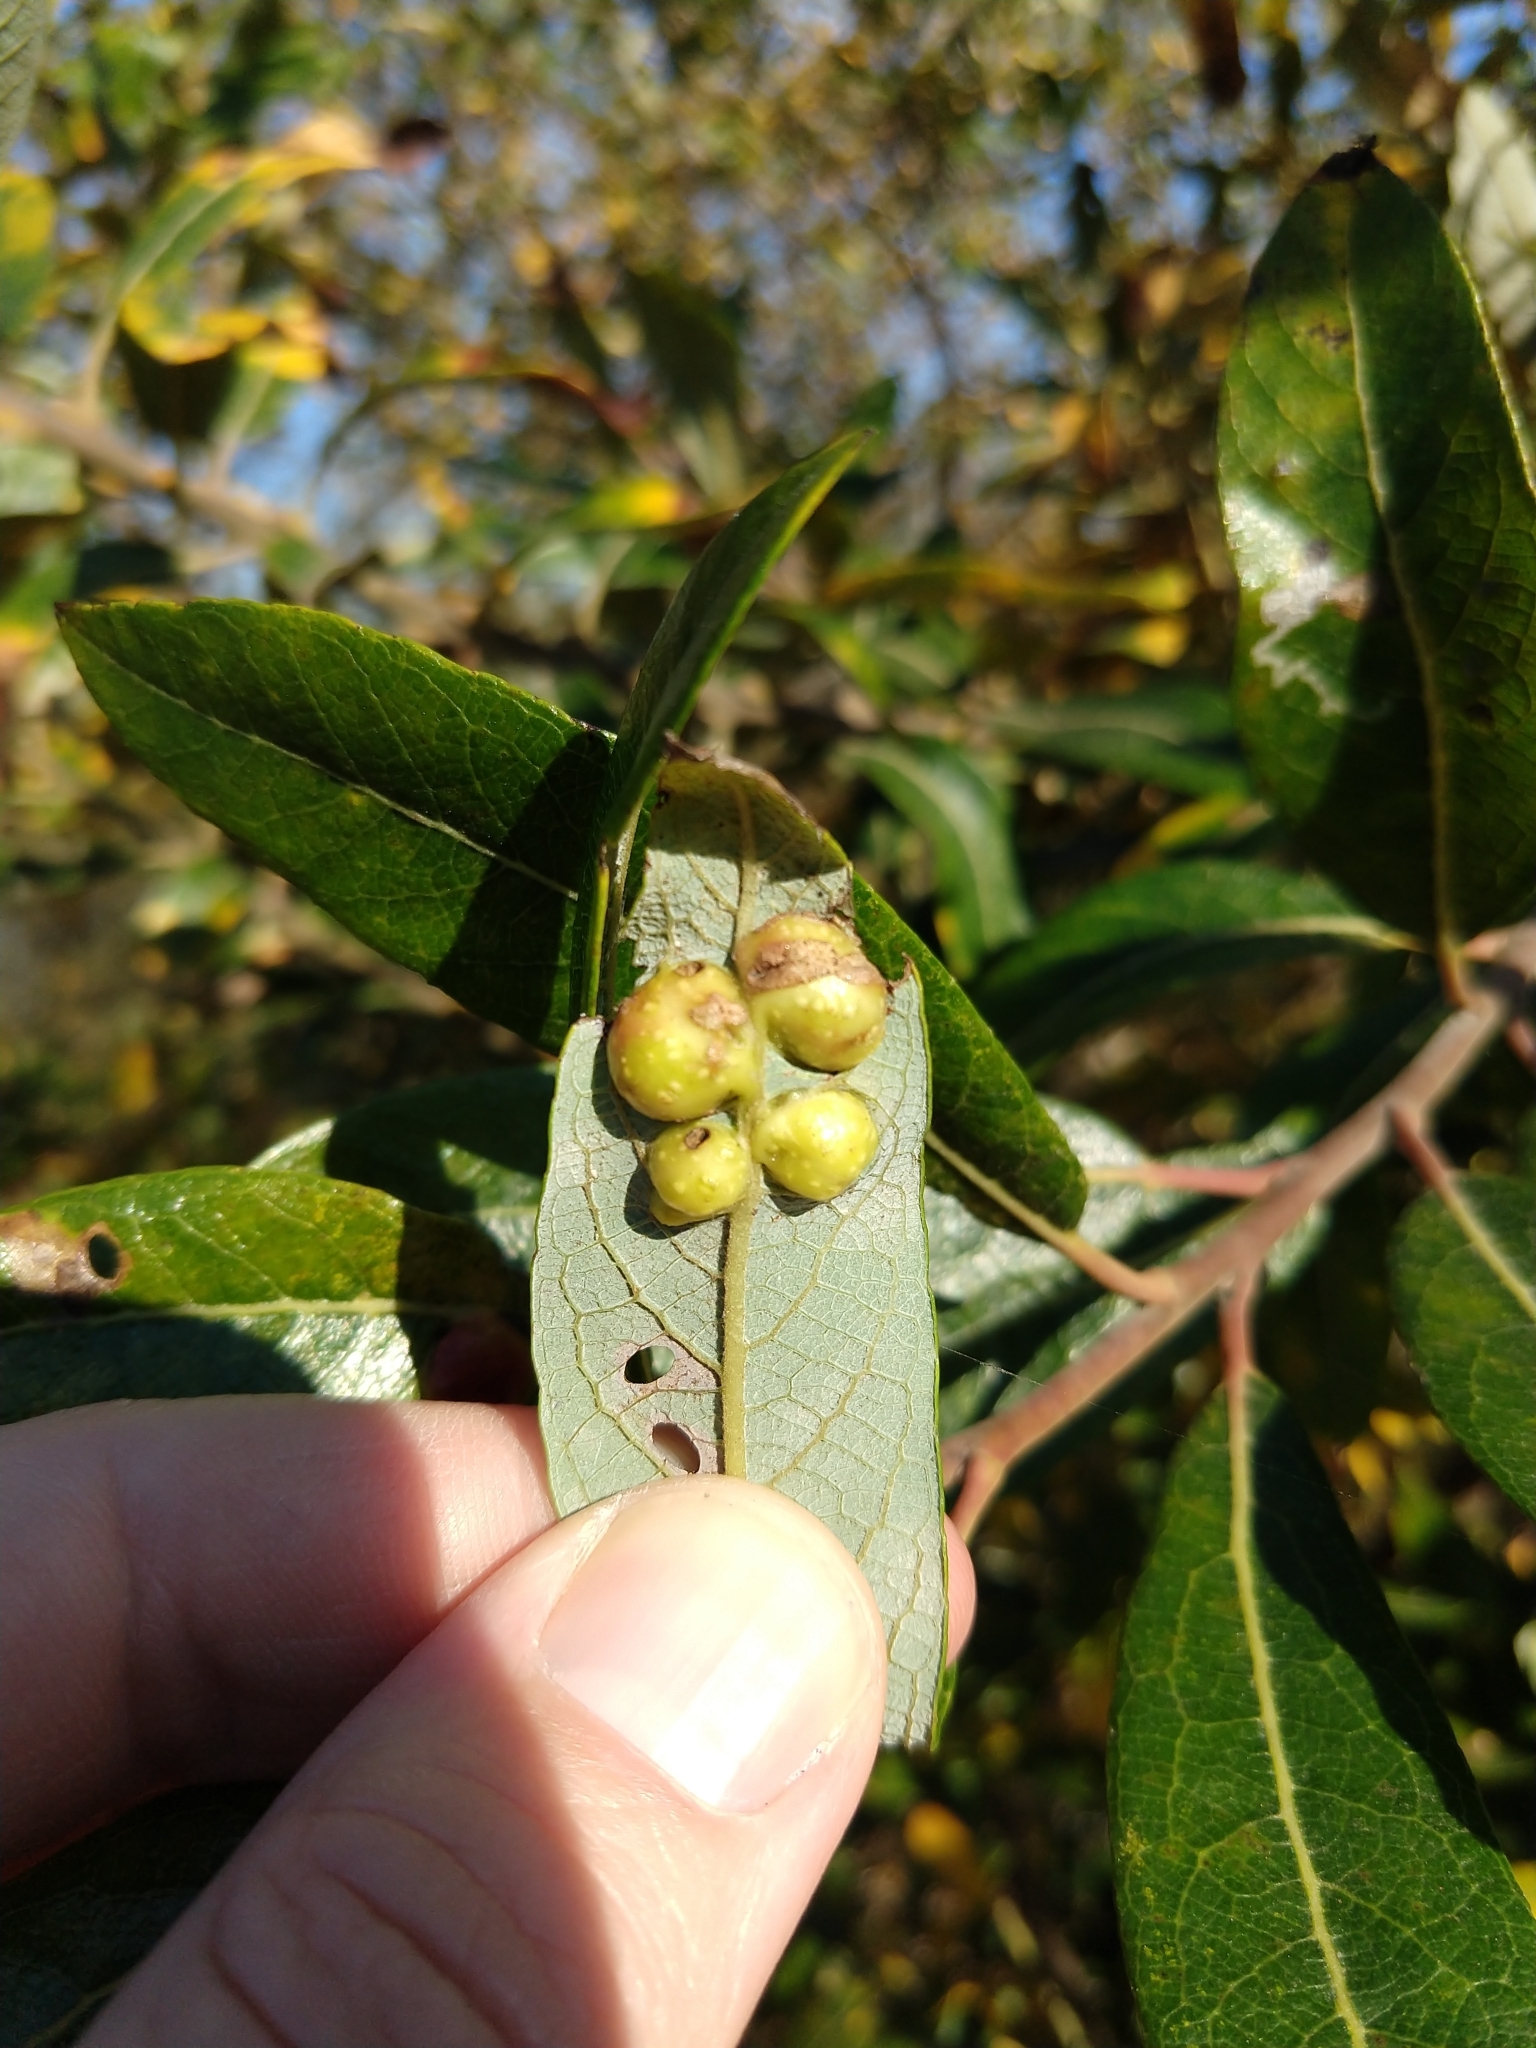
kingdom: Animalia
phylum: Arthropoda
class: Insecta
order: Hymenoptera
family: Tenthredinidae
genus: Euura
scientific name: Euura
